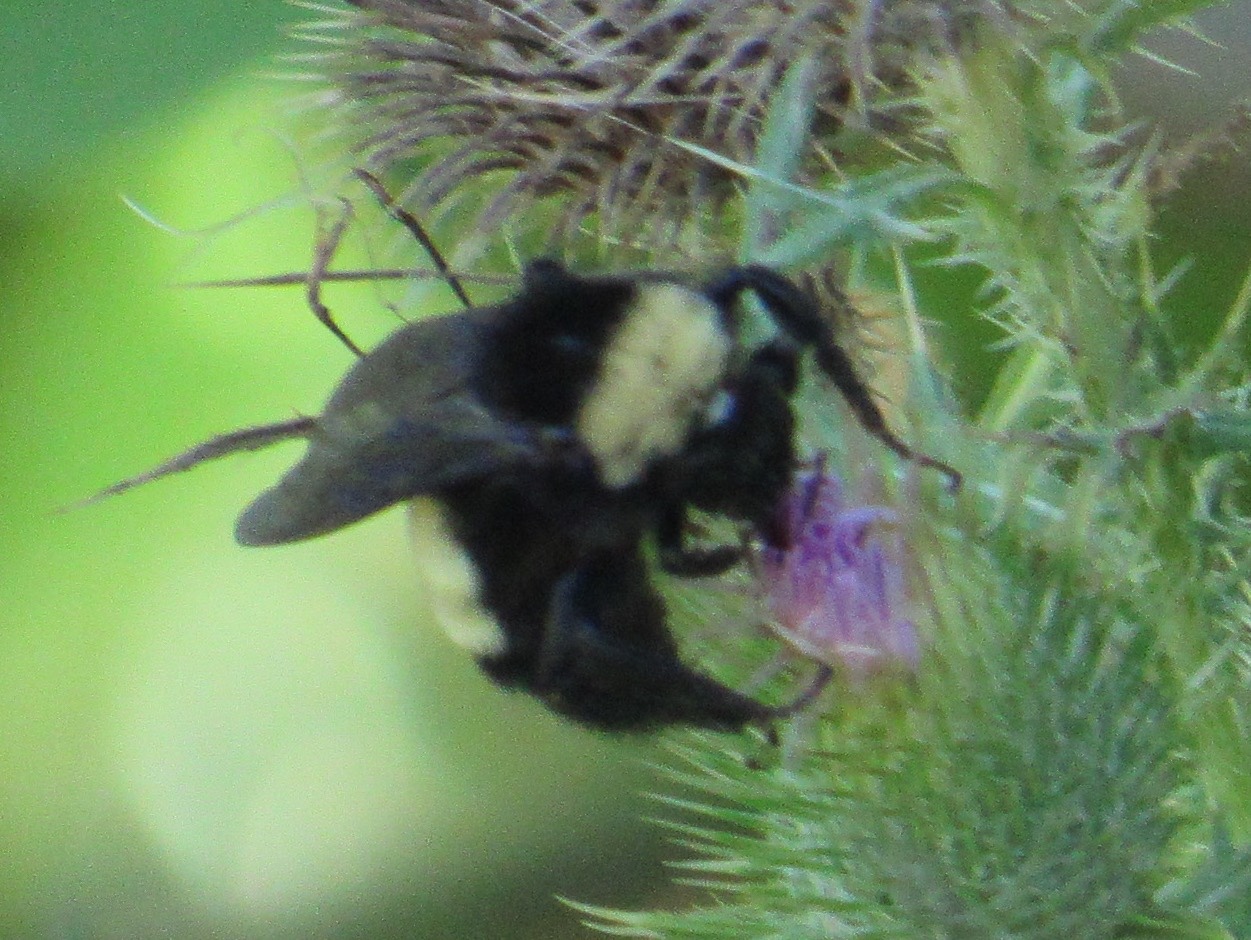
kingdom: Animalia
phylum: Arthropoda
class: Insecta
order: Hymenoptera
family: Apidae
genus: Bombus
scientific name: Bombus pensylvanicus
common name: Bumble bee
